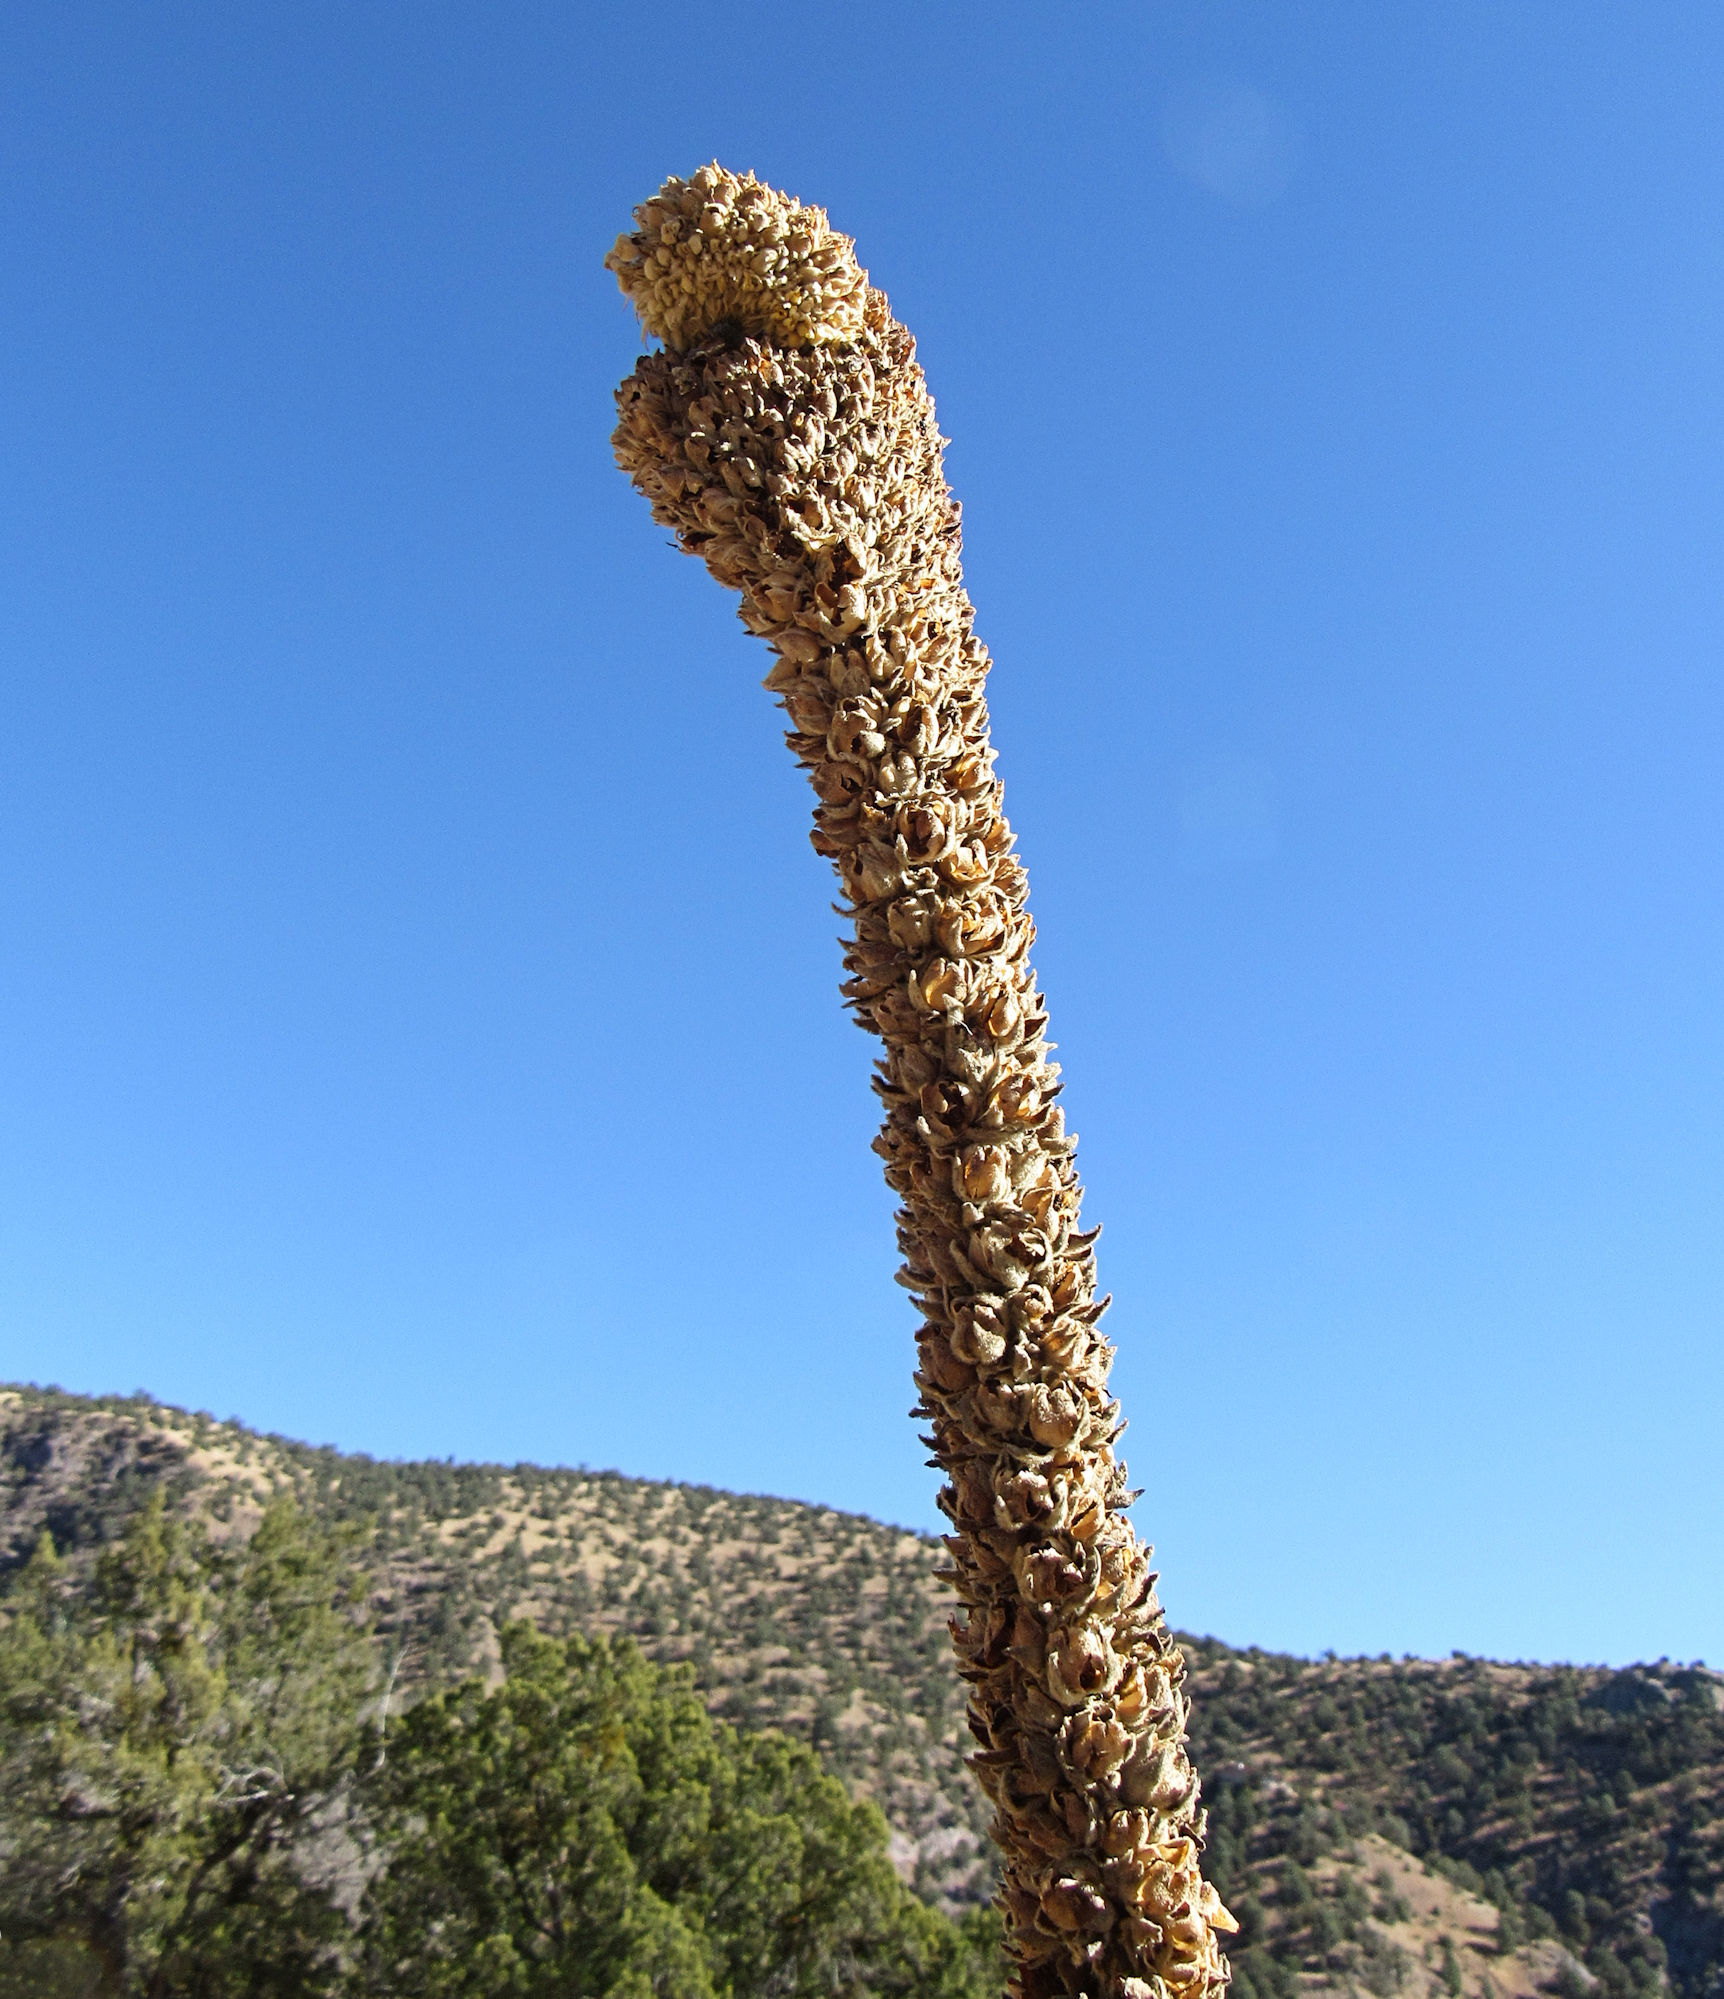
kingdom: Plantae
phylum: Tracheophyta
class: Magnoliopsida
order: Lamiales
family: Scrophulariaceae
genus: Verbascum
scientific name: Verbascum thapsus
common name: Common mullein
